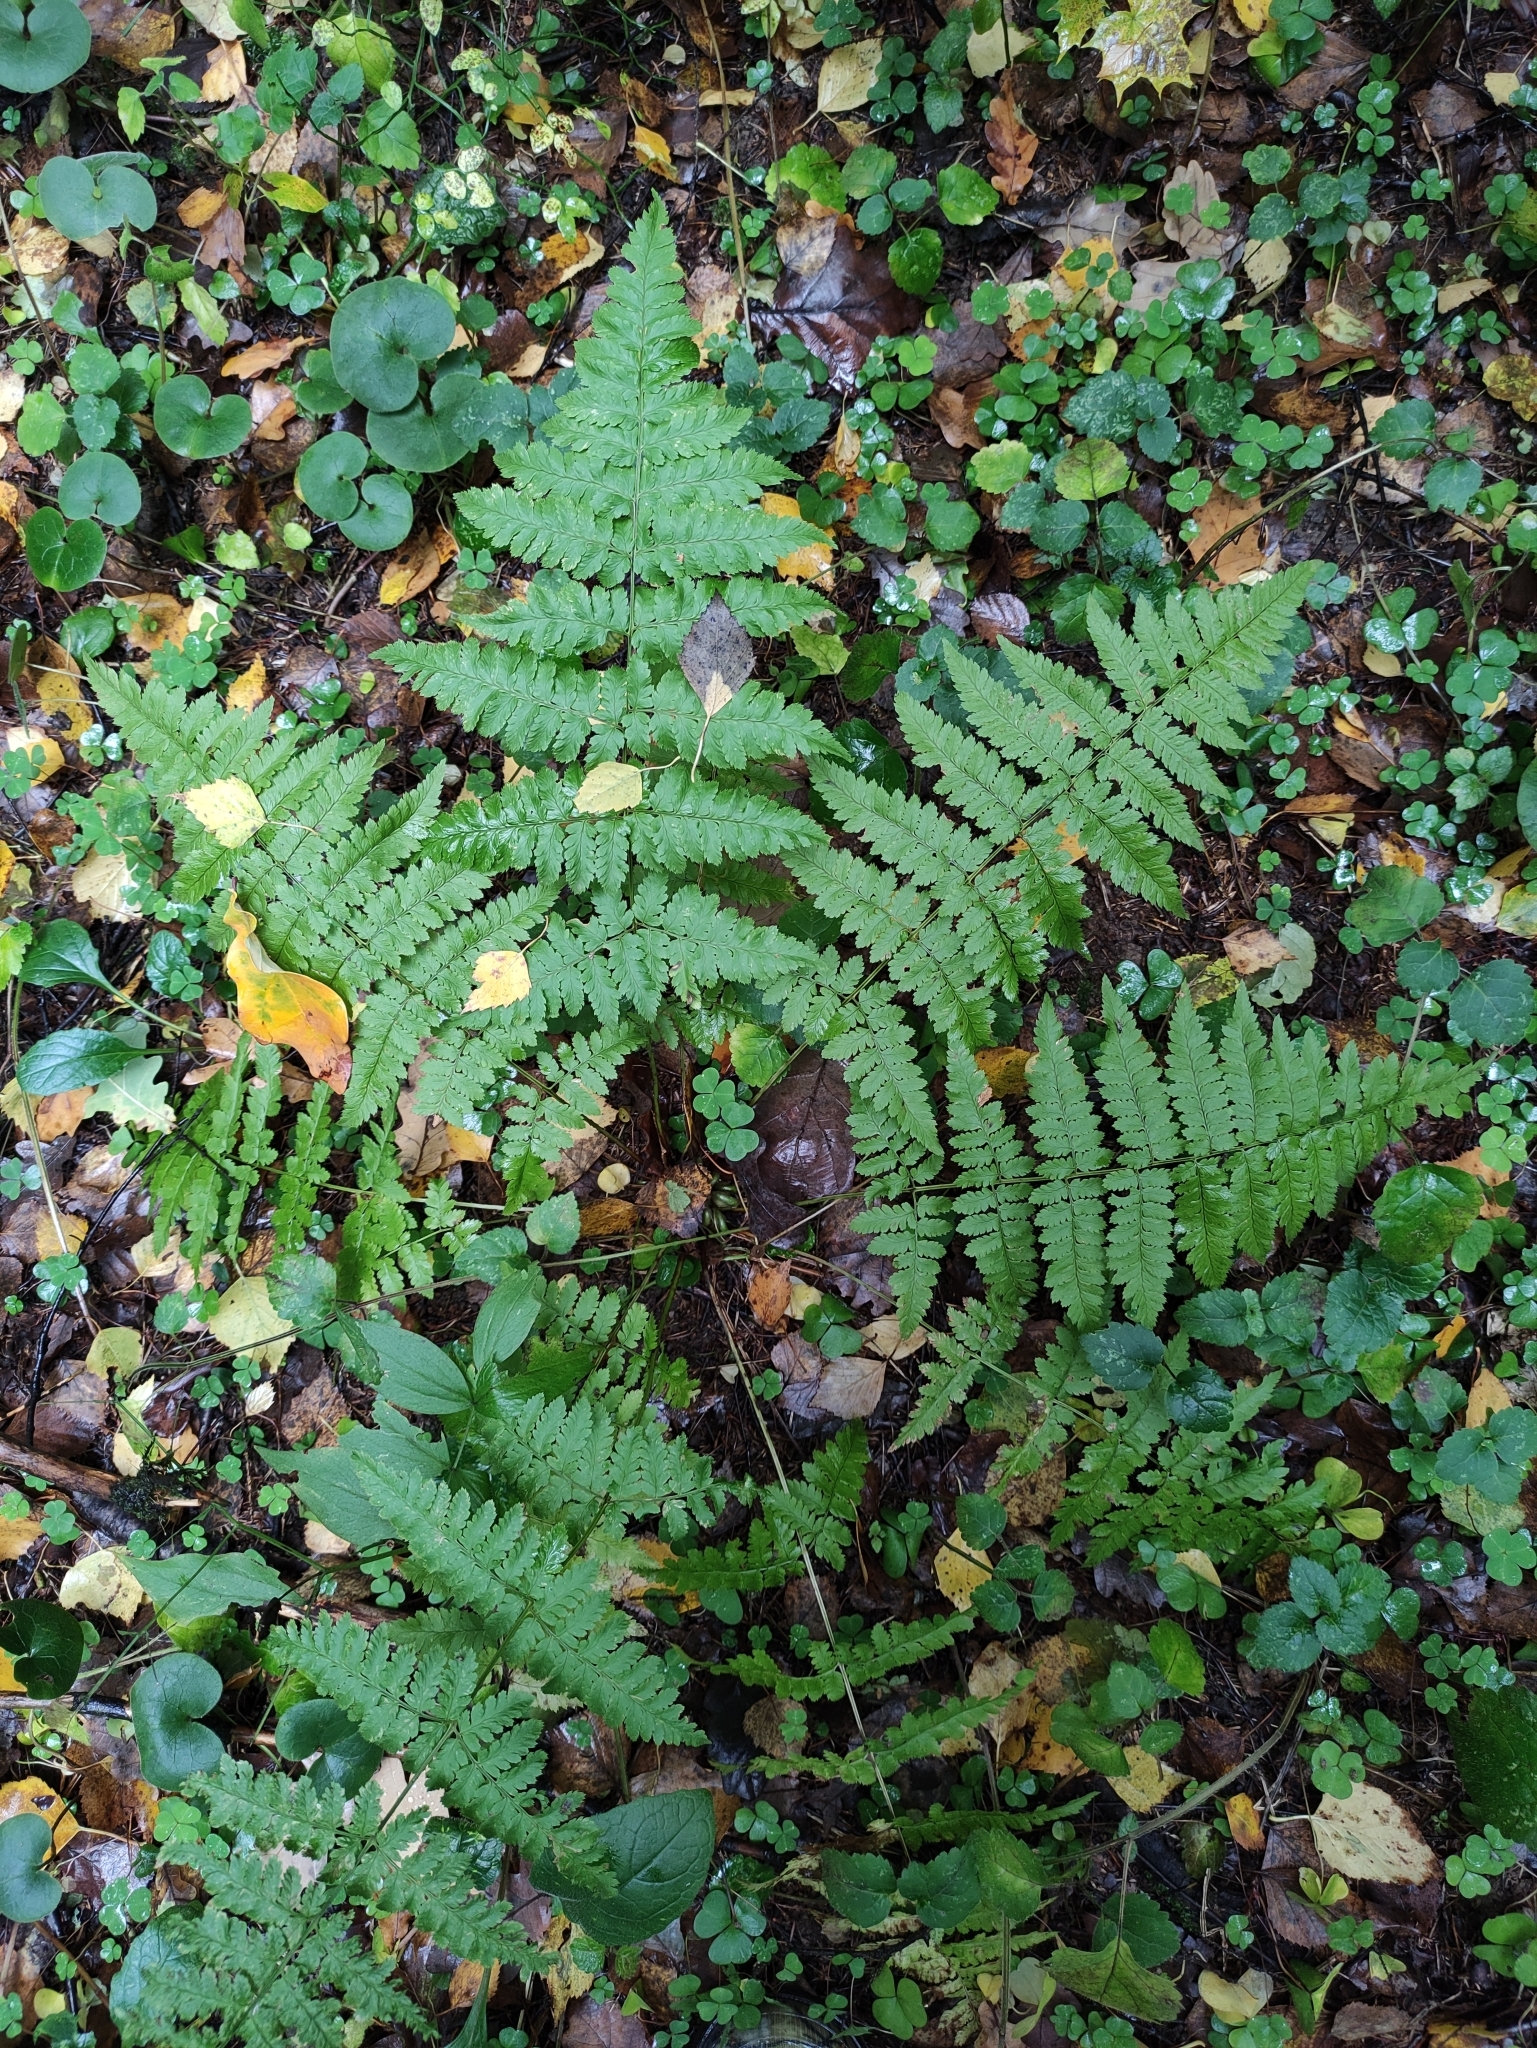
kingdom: Plantae
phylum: Tracheophyta
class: Polypodiopsida
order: Polypodiales
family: Dryopteridaceae
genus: Dryopteris
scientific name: Dryopteris carthusiana
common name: Narrow buckler-fern
